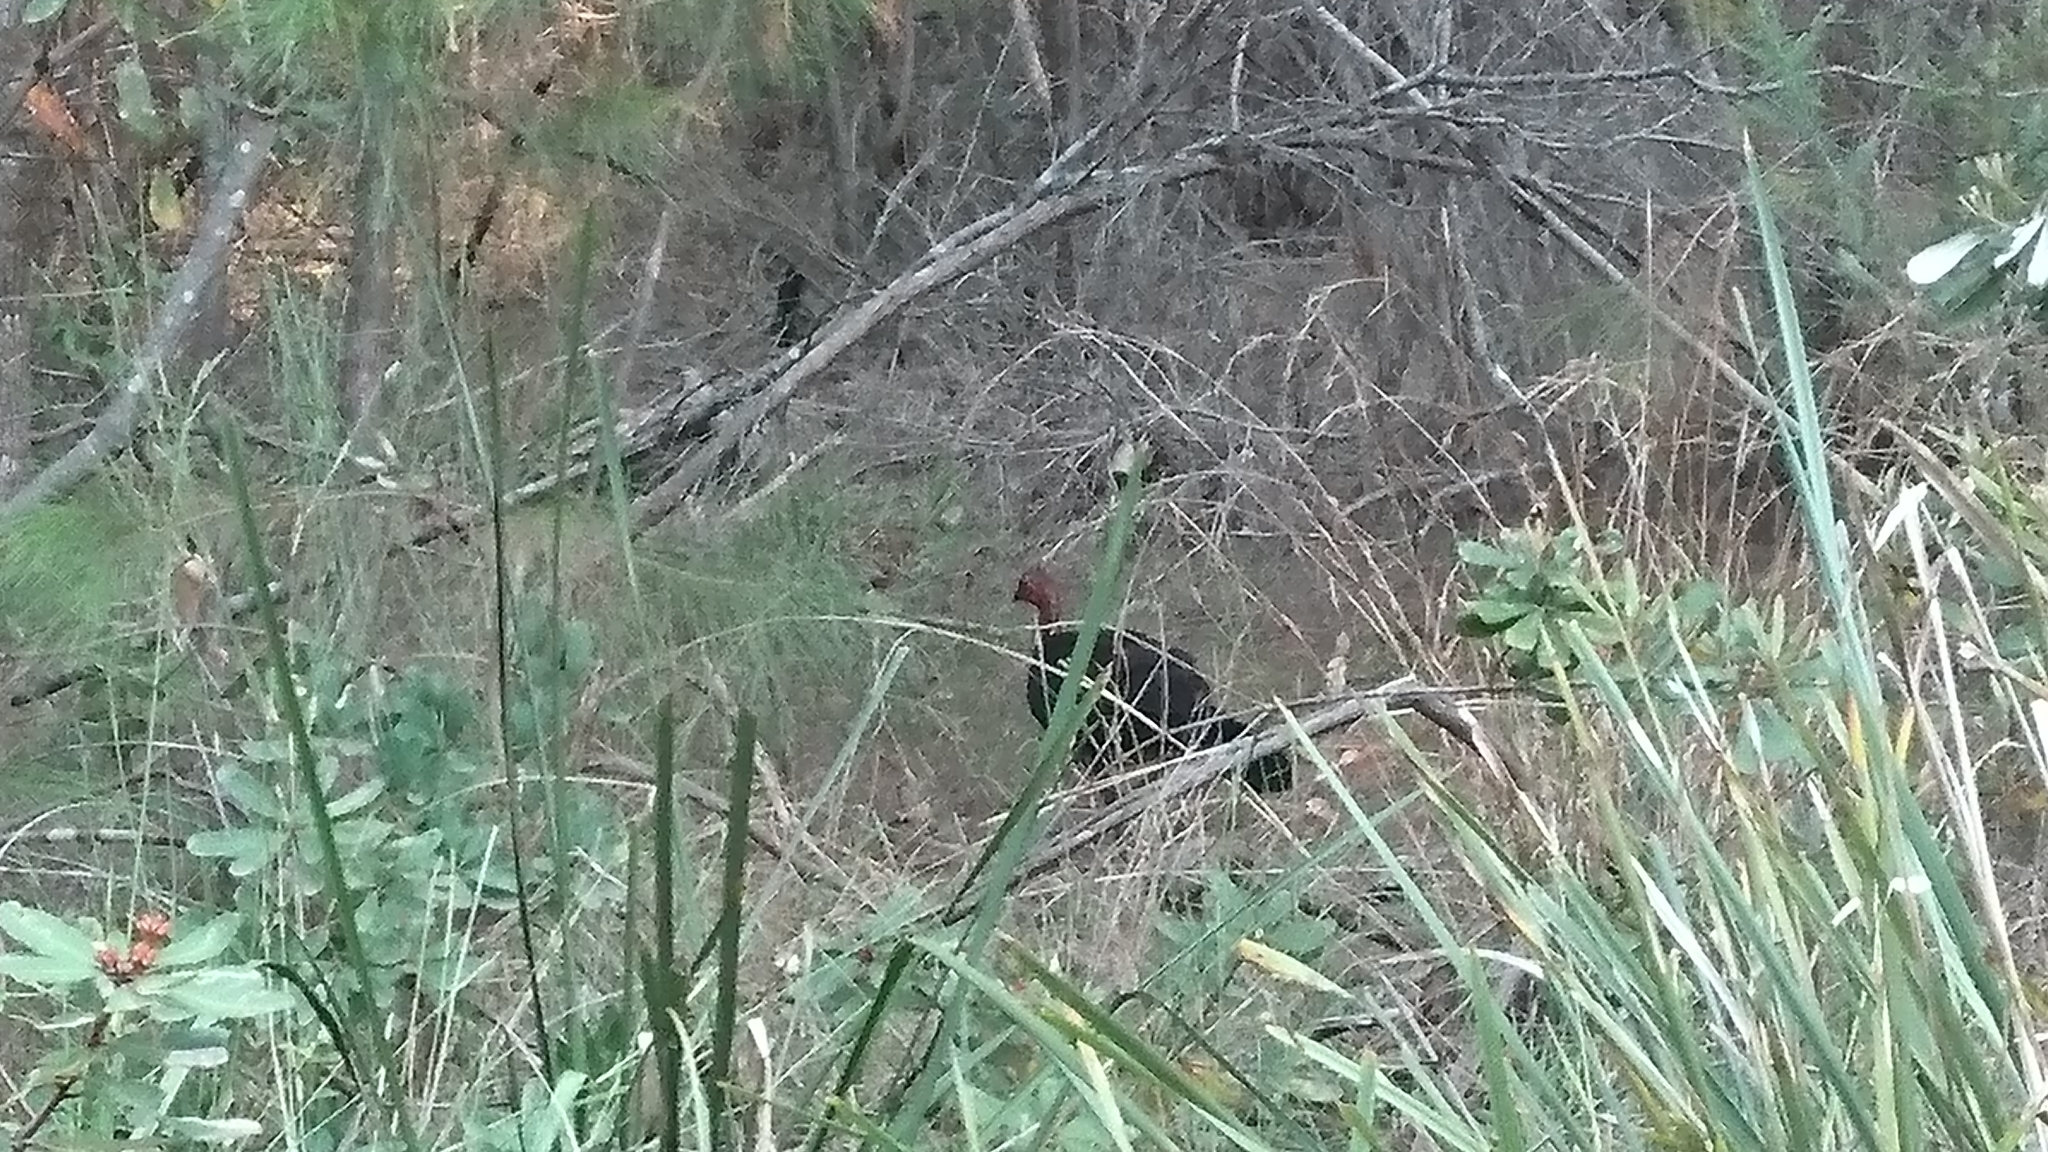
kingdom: Animalia
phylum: Chordata
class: Aves
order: Galliformes
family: Megapodiidae
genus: Alectura
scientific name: Alectura lathami
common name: Australian brushturkey
